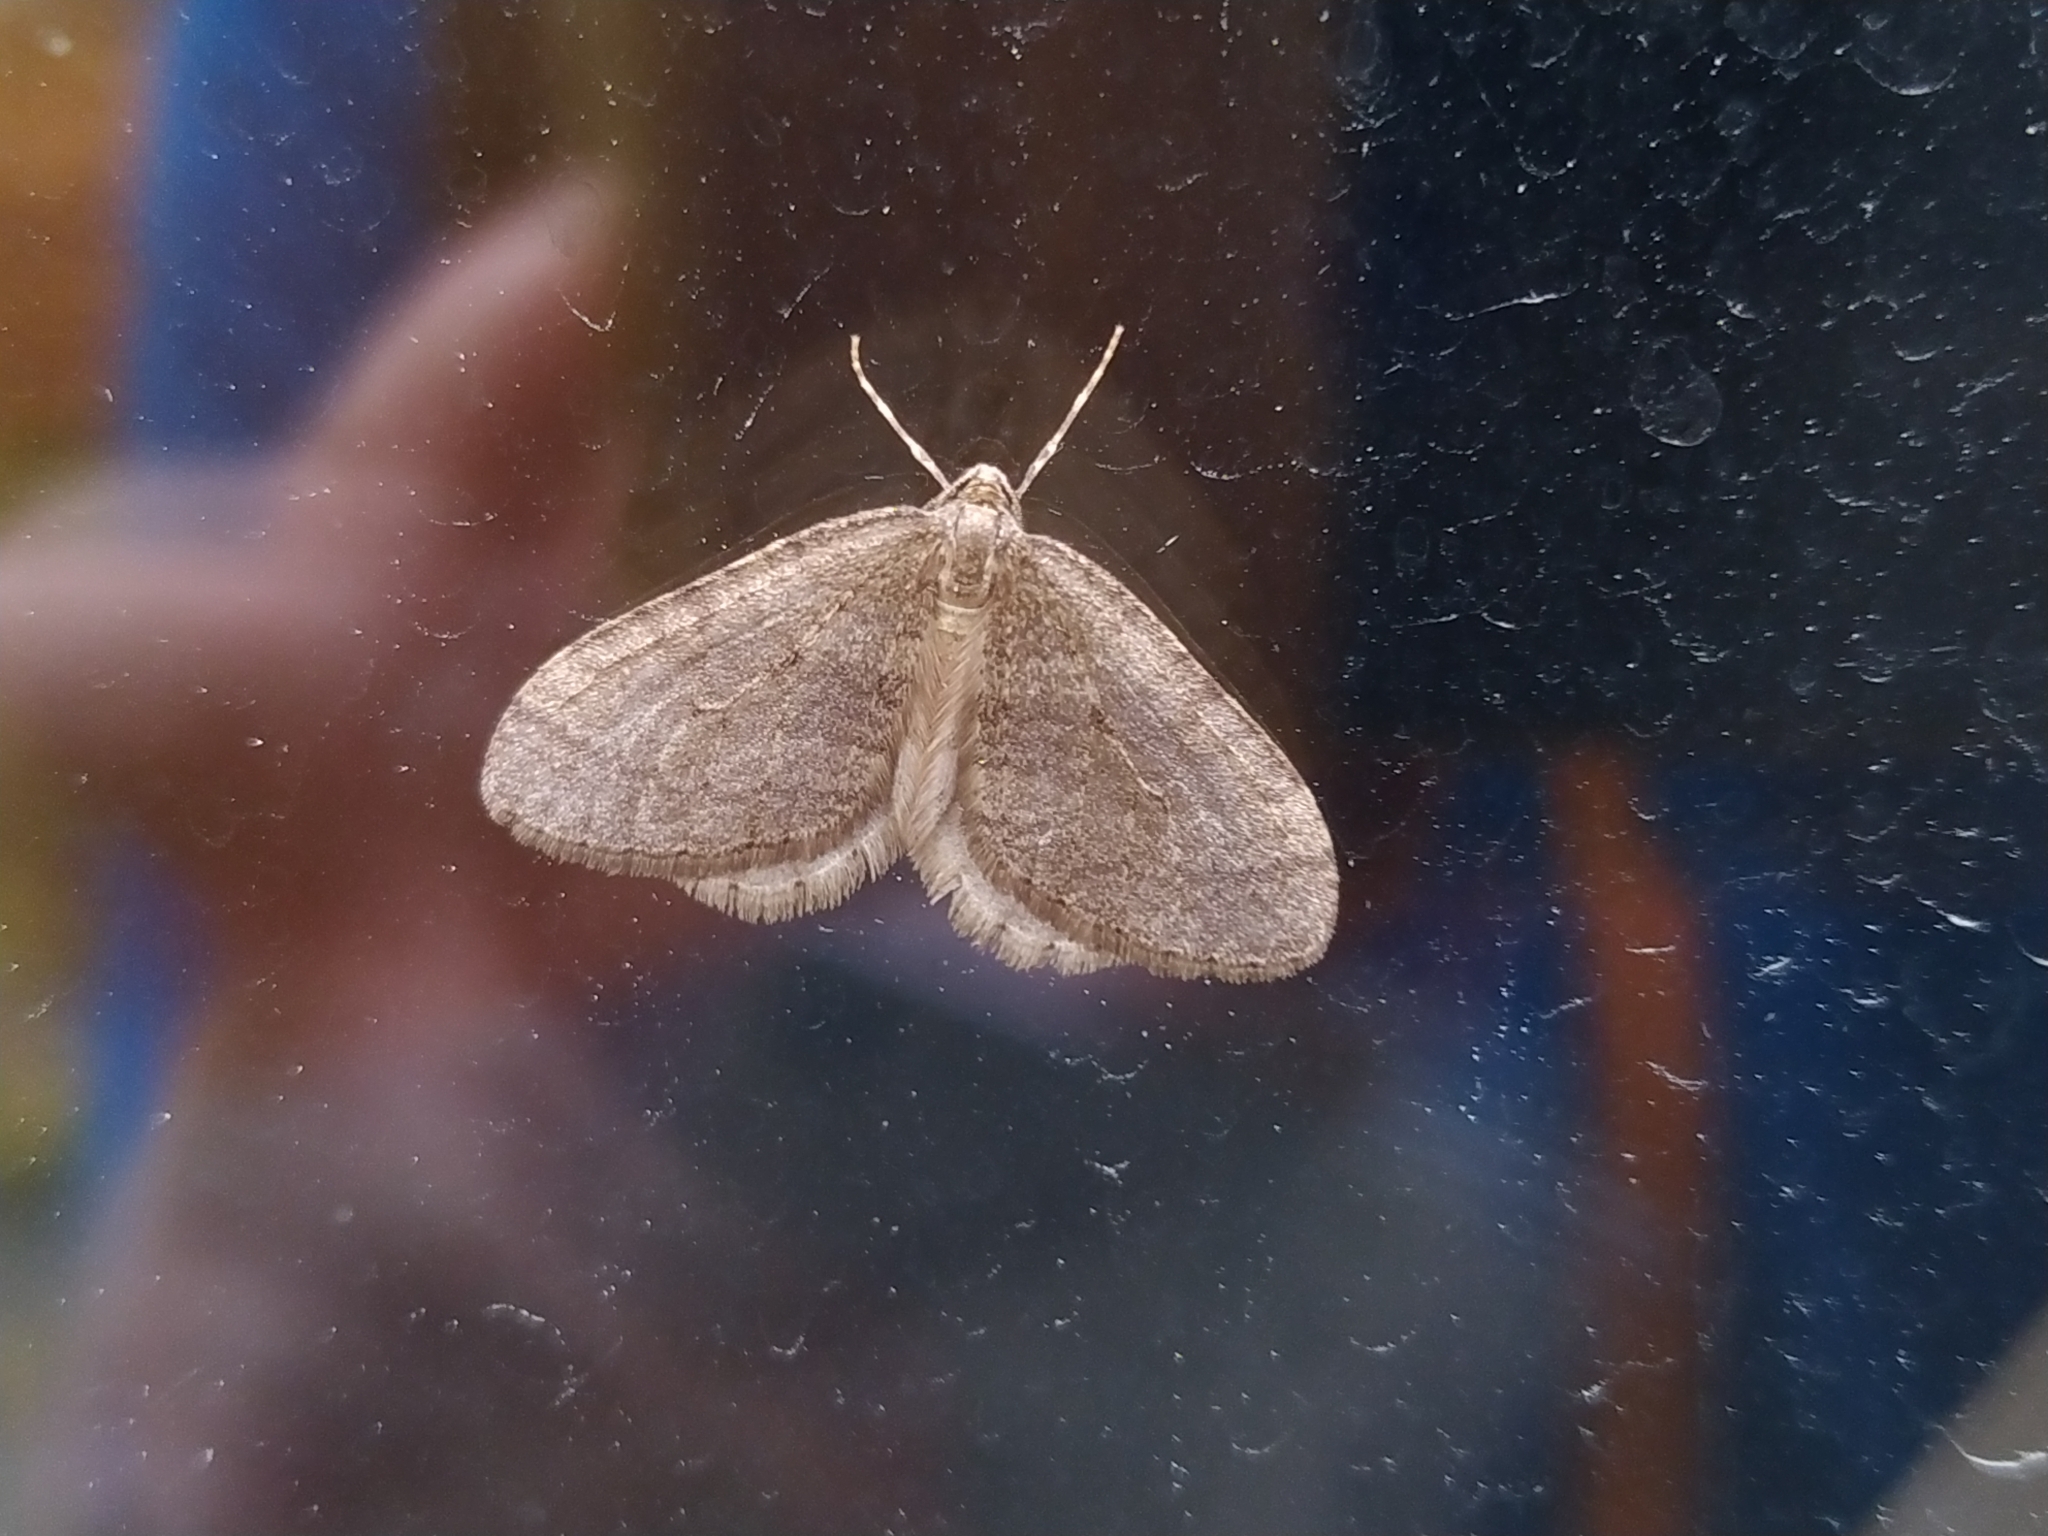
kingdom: Animalia
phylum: Arthropoda
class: Insecta
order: Lepidoptera
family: Geometridae
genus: Operophtera
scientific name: Operophtera brumata
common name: Winter moth
